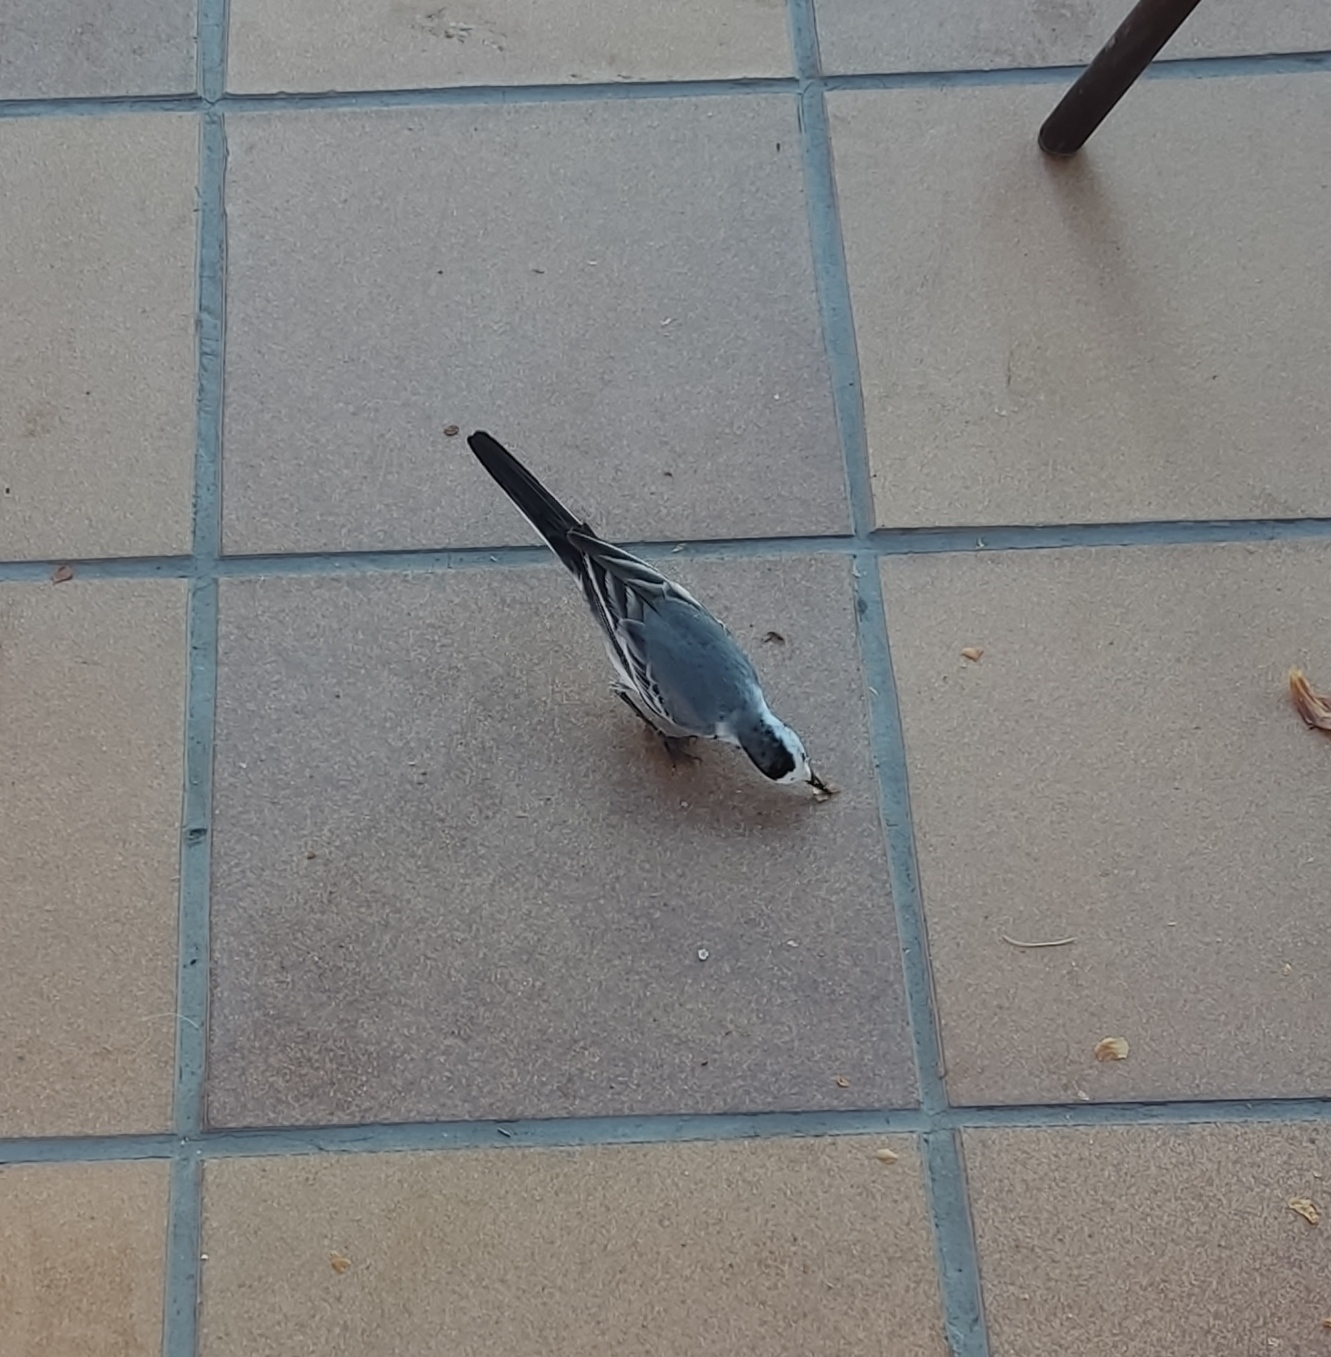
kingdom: Animalia
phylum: Chordata
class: Aves
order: Passeriformes
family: Motacillidae
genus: Motacilla
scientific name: Motacilla alba
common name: White wagtail
